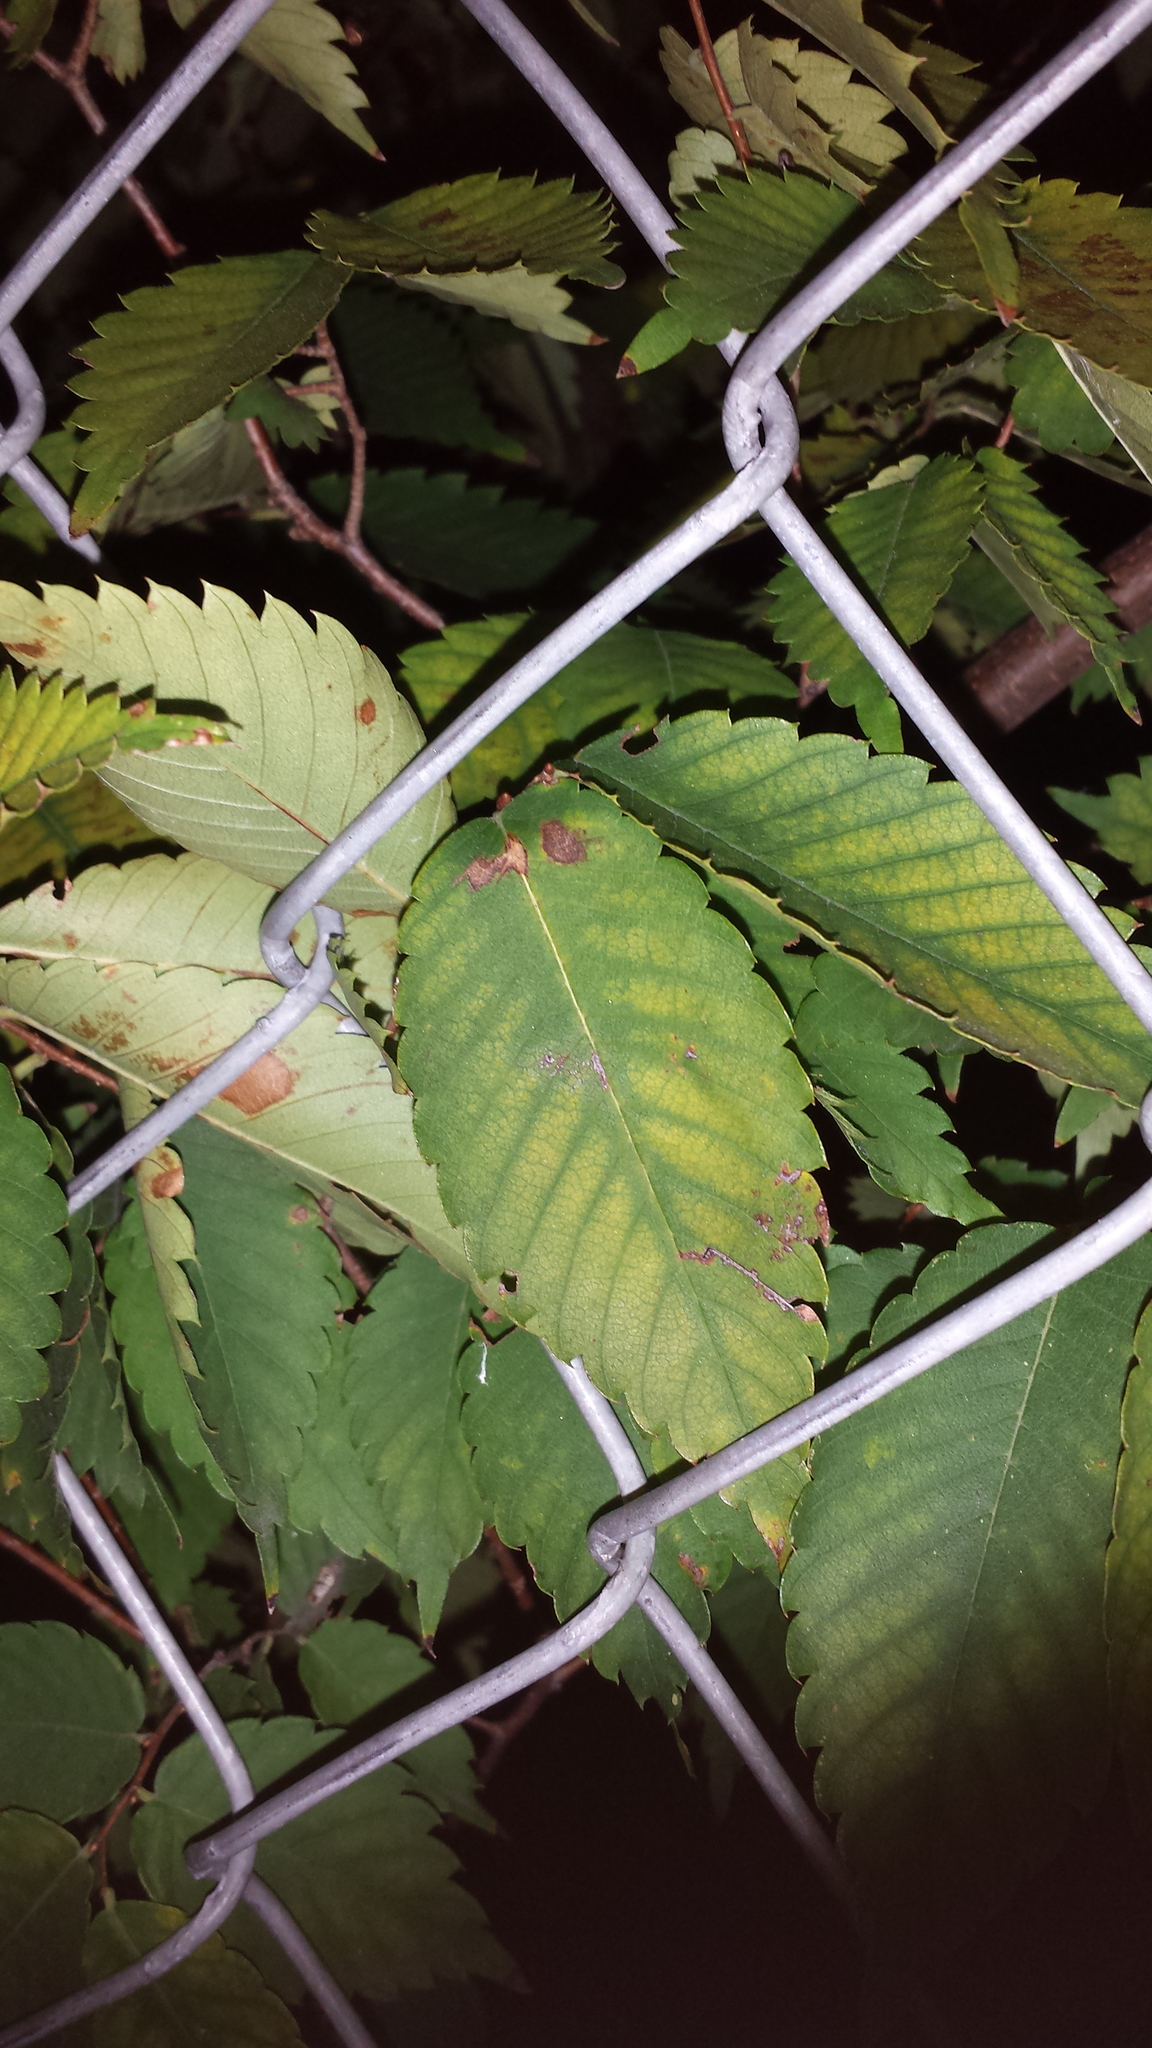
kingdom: Plantae
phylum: Tracheophyta
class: Magnoliopsida
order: Rosales
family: Ulmaceae
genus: Zelkova
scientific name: Zelkova serrata
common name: Japanese zelkova
